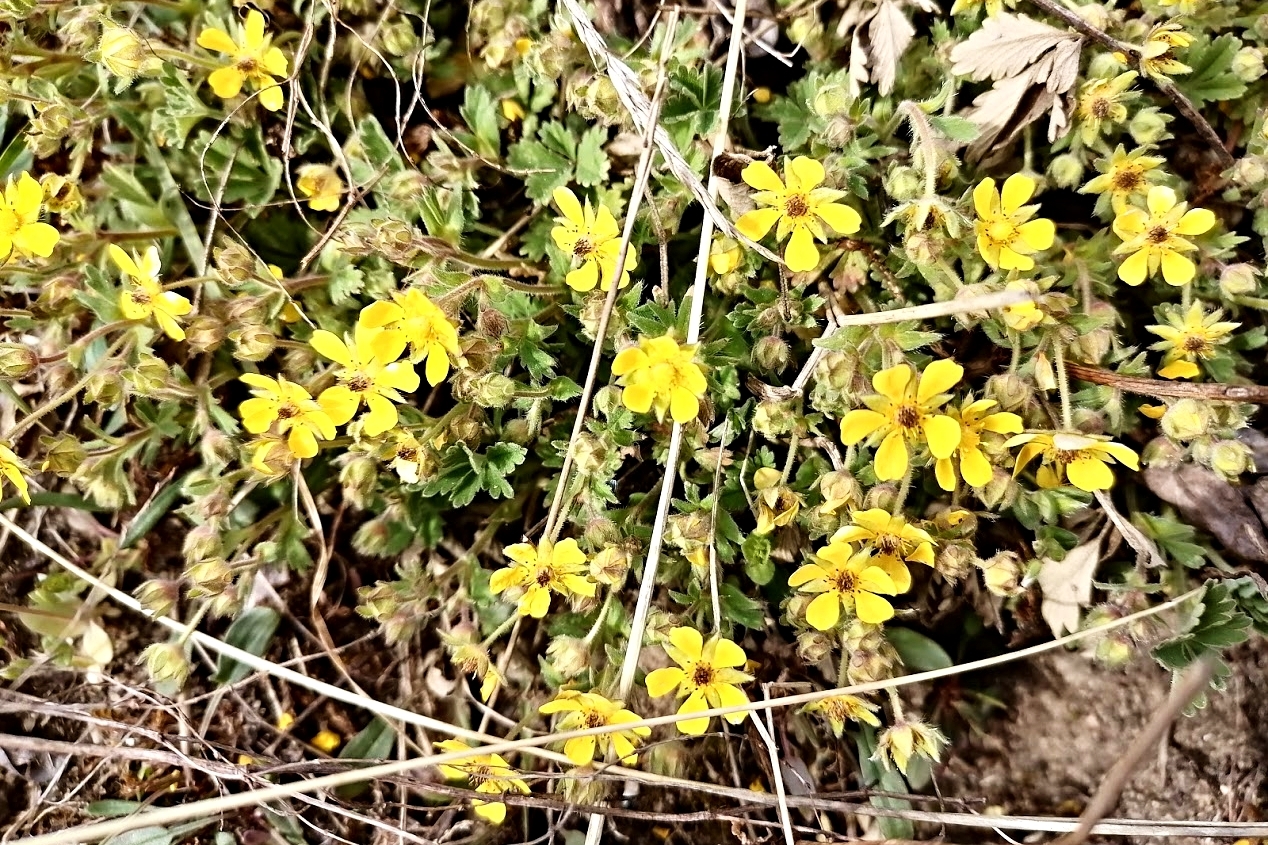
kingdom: Plantae
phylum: Tracheophyta
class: Magnoliopsida
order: Rosales
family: Rosaceae
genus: Potentilla
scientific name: Potentilla incana
